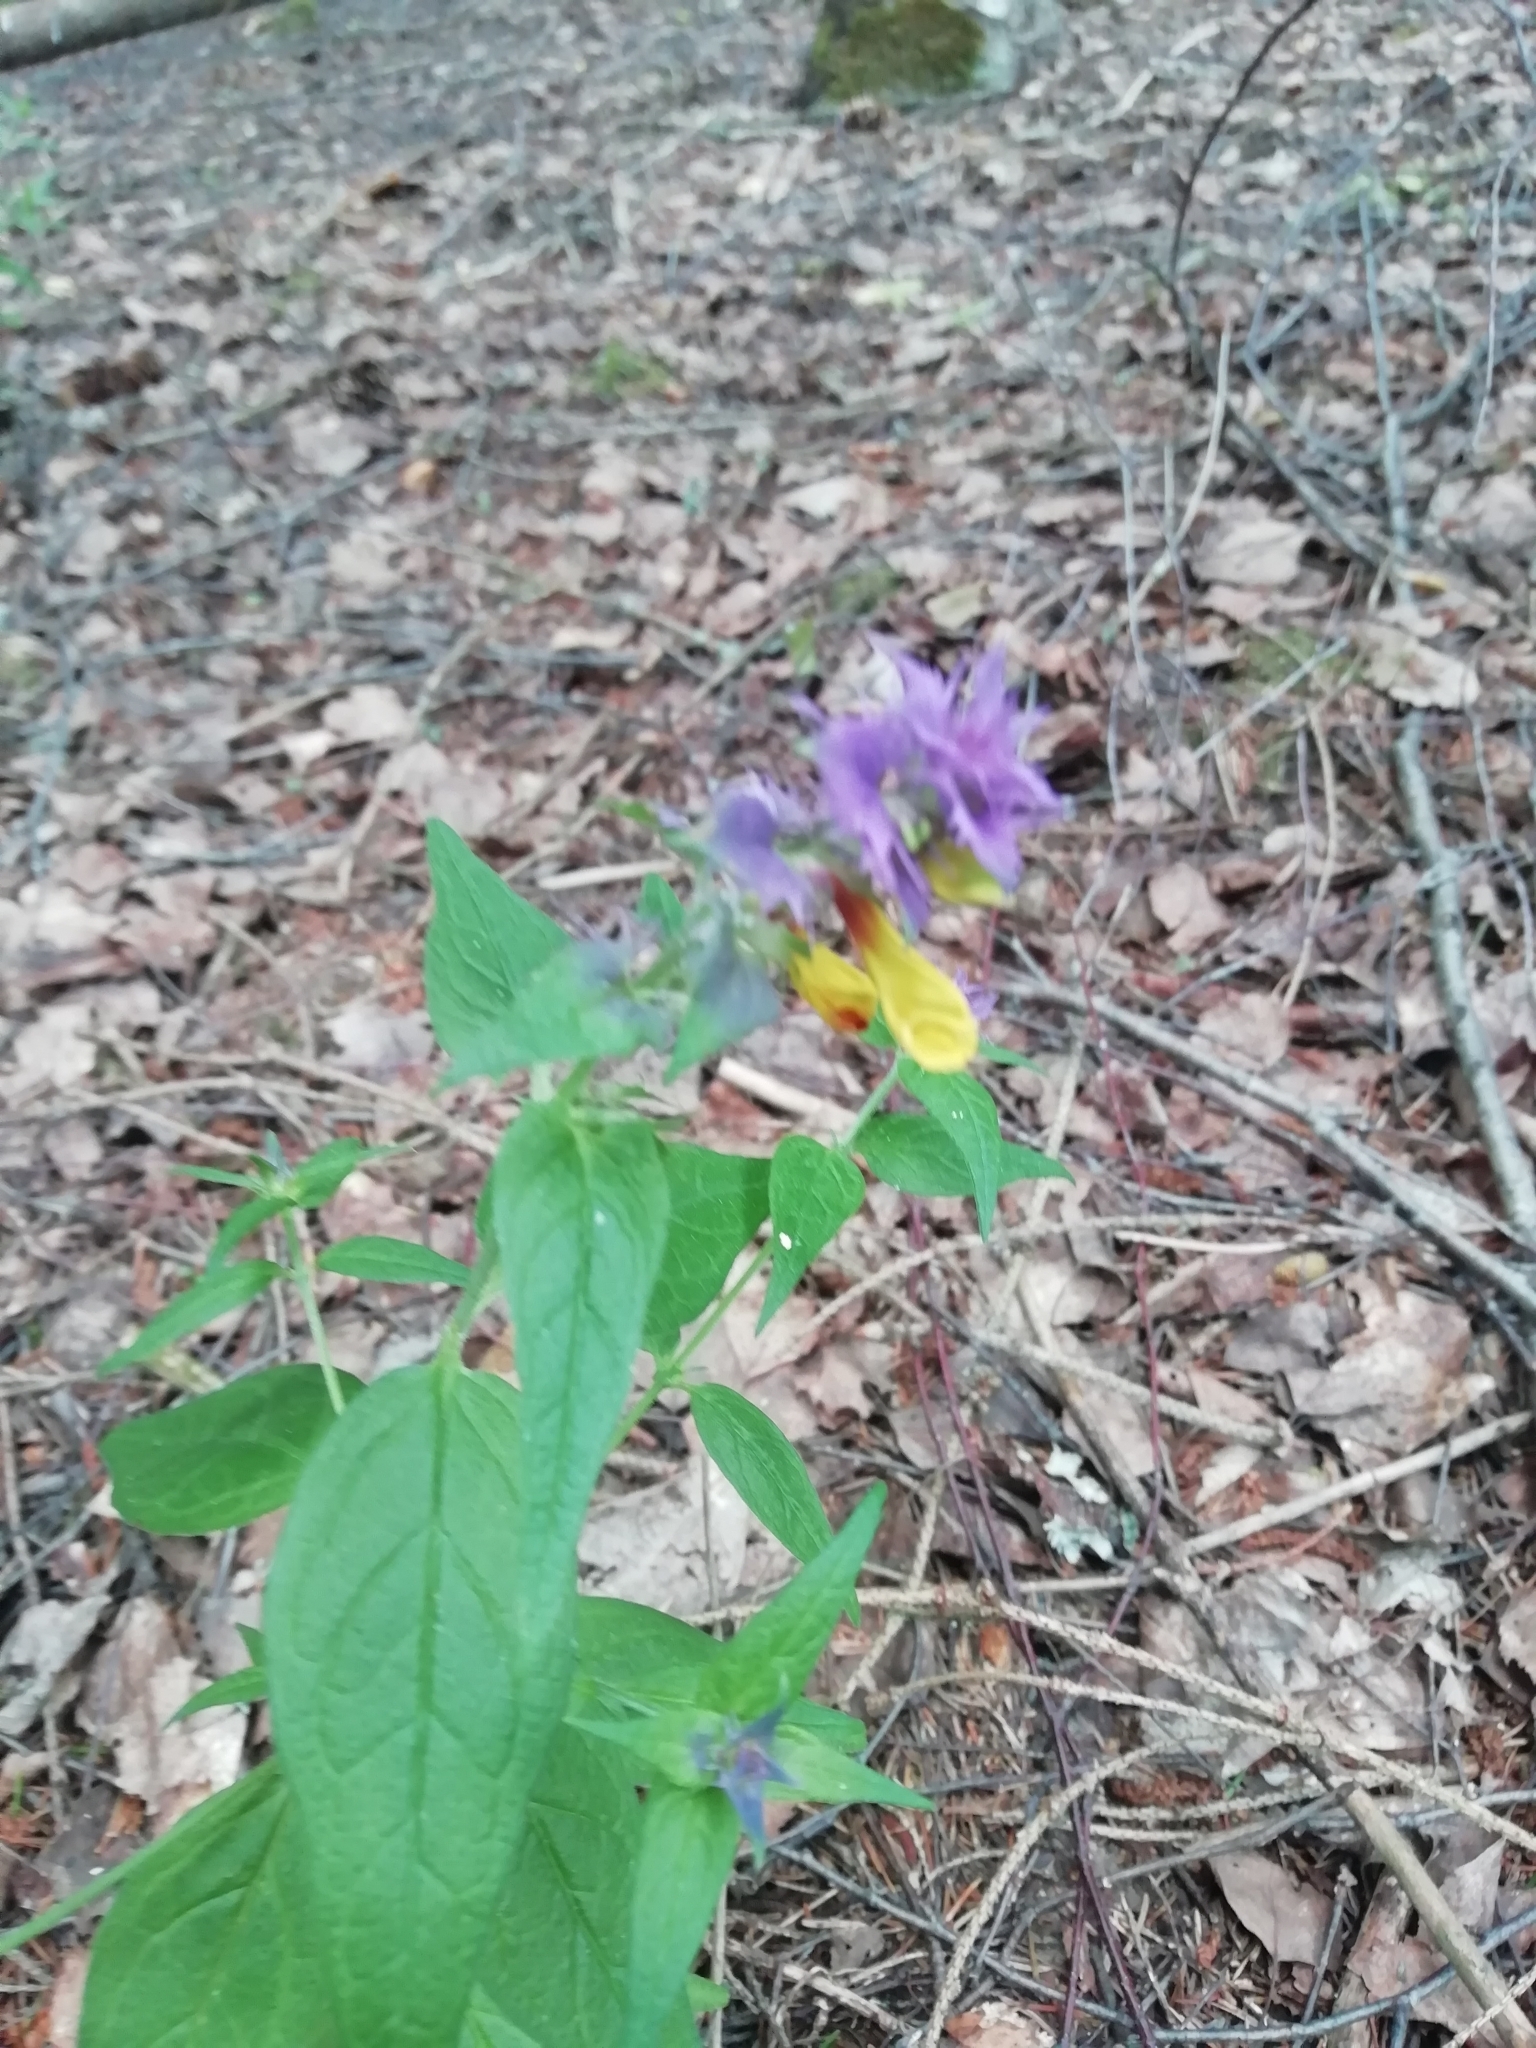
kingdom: Plantae
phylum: Tracheophyta
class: Magnoliopsida
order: Lamiales
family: Orobanchaceae
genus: Melampyrum
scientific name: Melampyrum nemorosum
